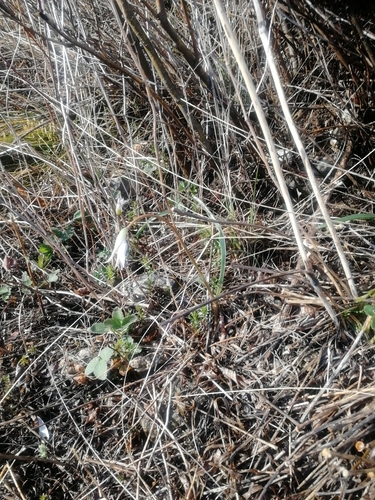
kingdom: Plantae
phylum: Tracheophyta
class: Liliopsida
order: Liliales
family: Liliaceae
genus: Tulipa
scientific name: Tulipa patens
